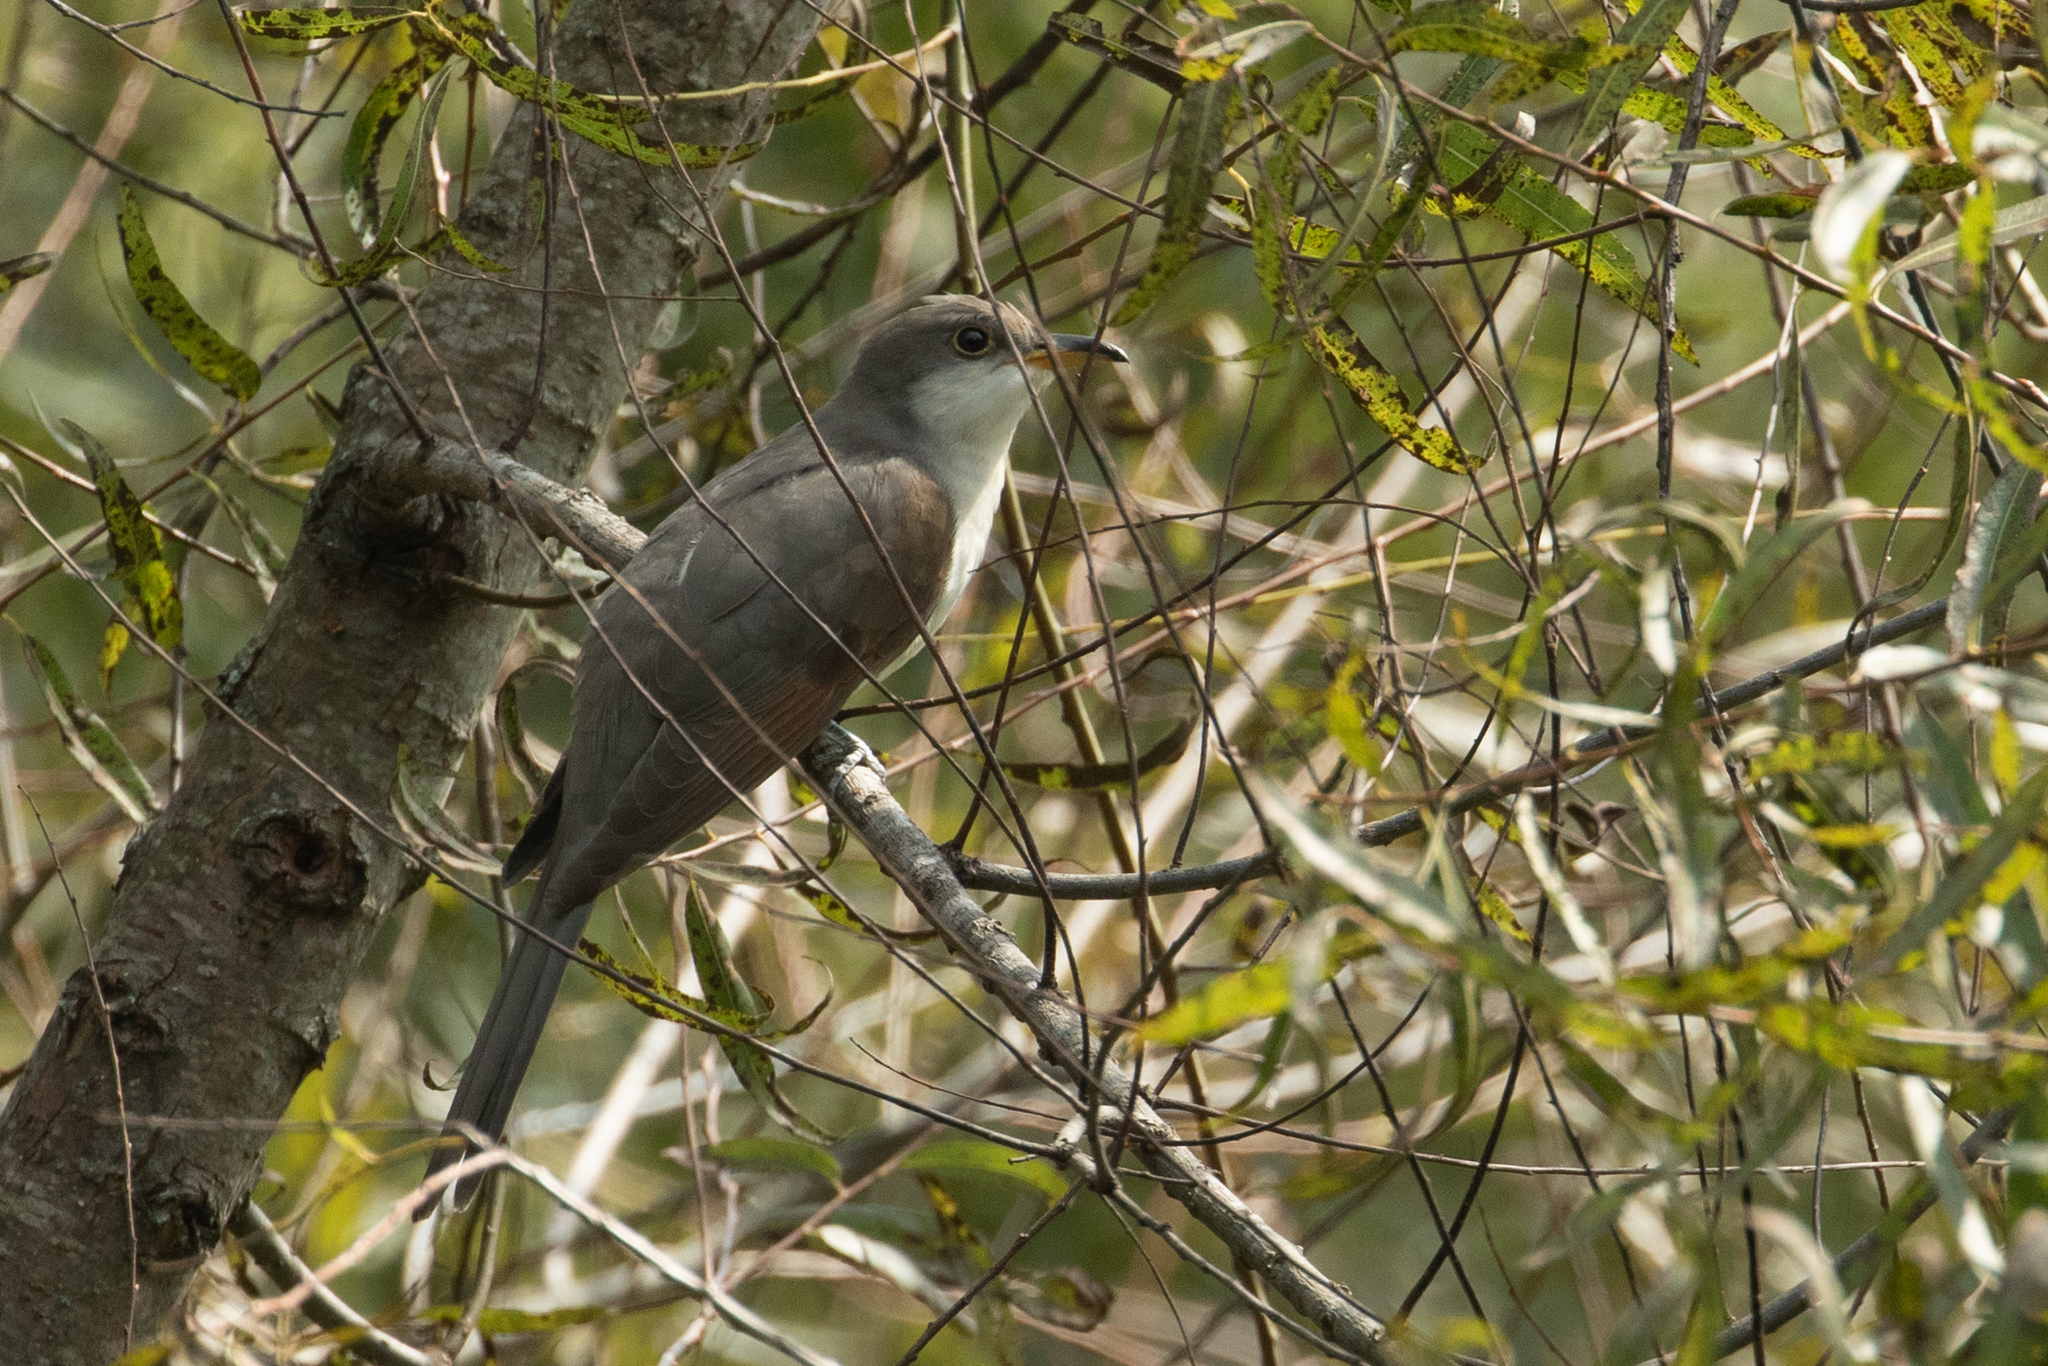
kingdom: Animalia
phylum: Chordata
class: Aves
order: Cuculiformes
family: Cuculidae
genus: Coccyzus
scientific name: Coccyzus americanus
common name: Yellow-billed cuckoo
